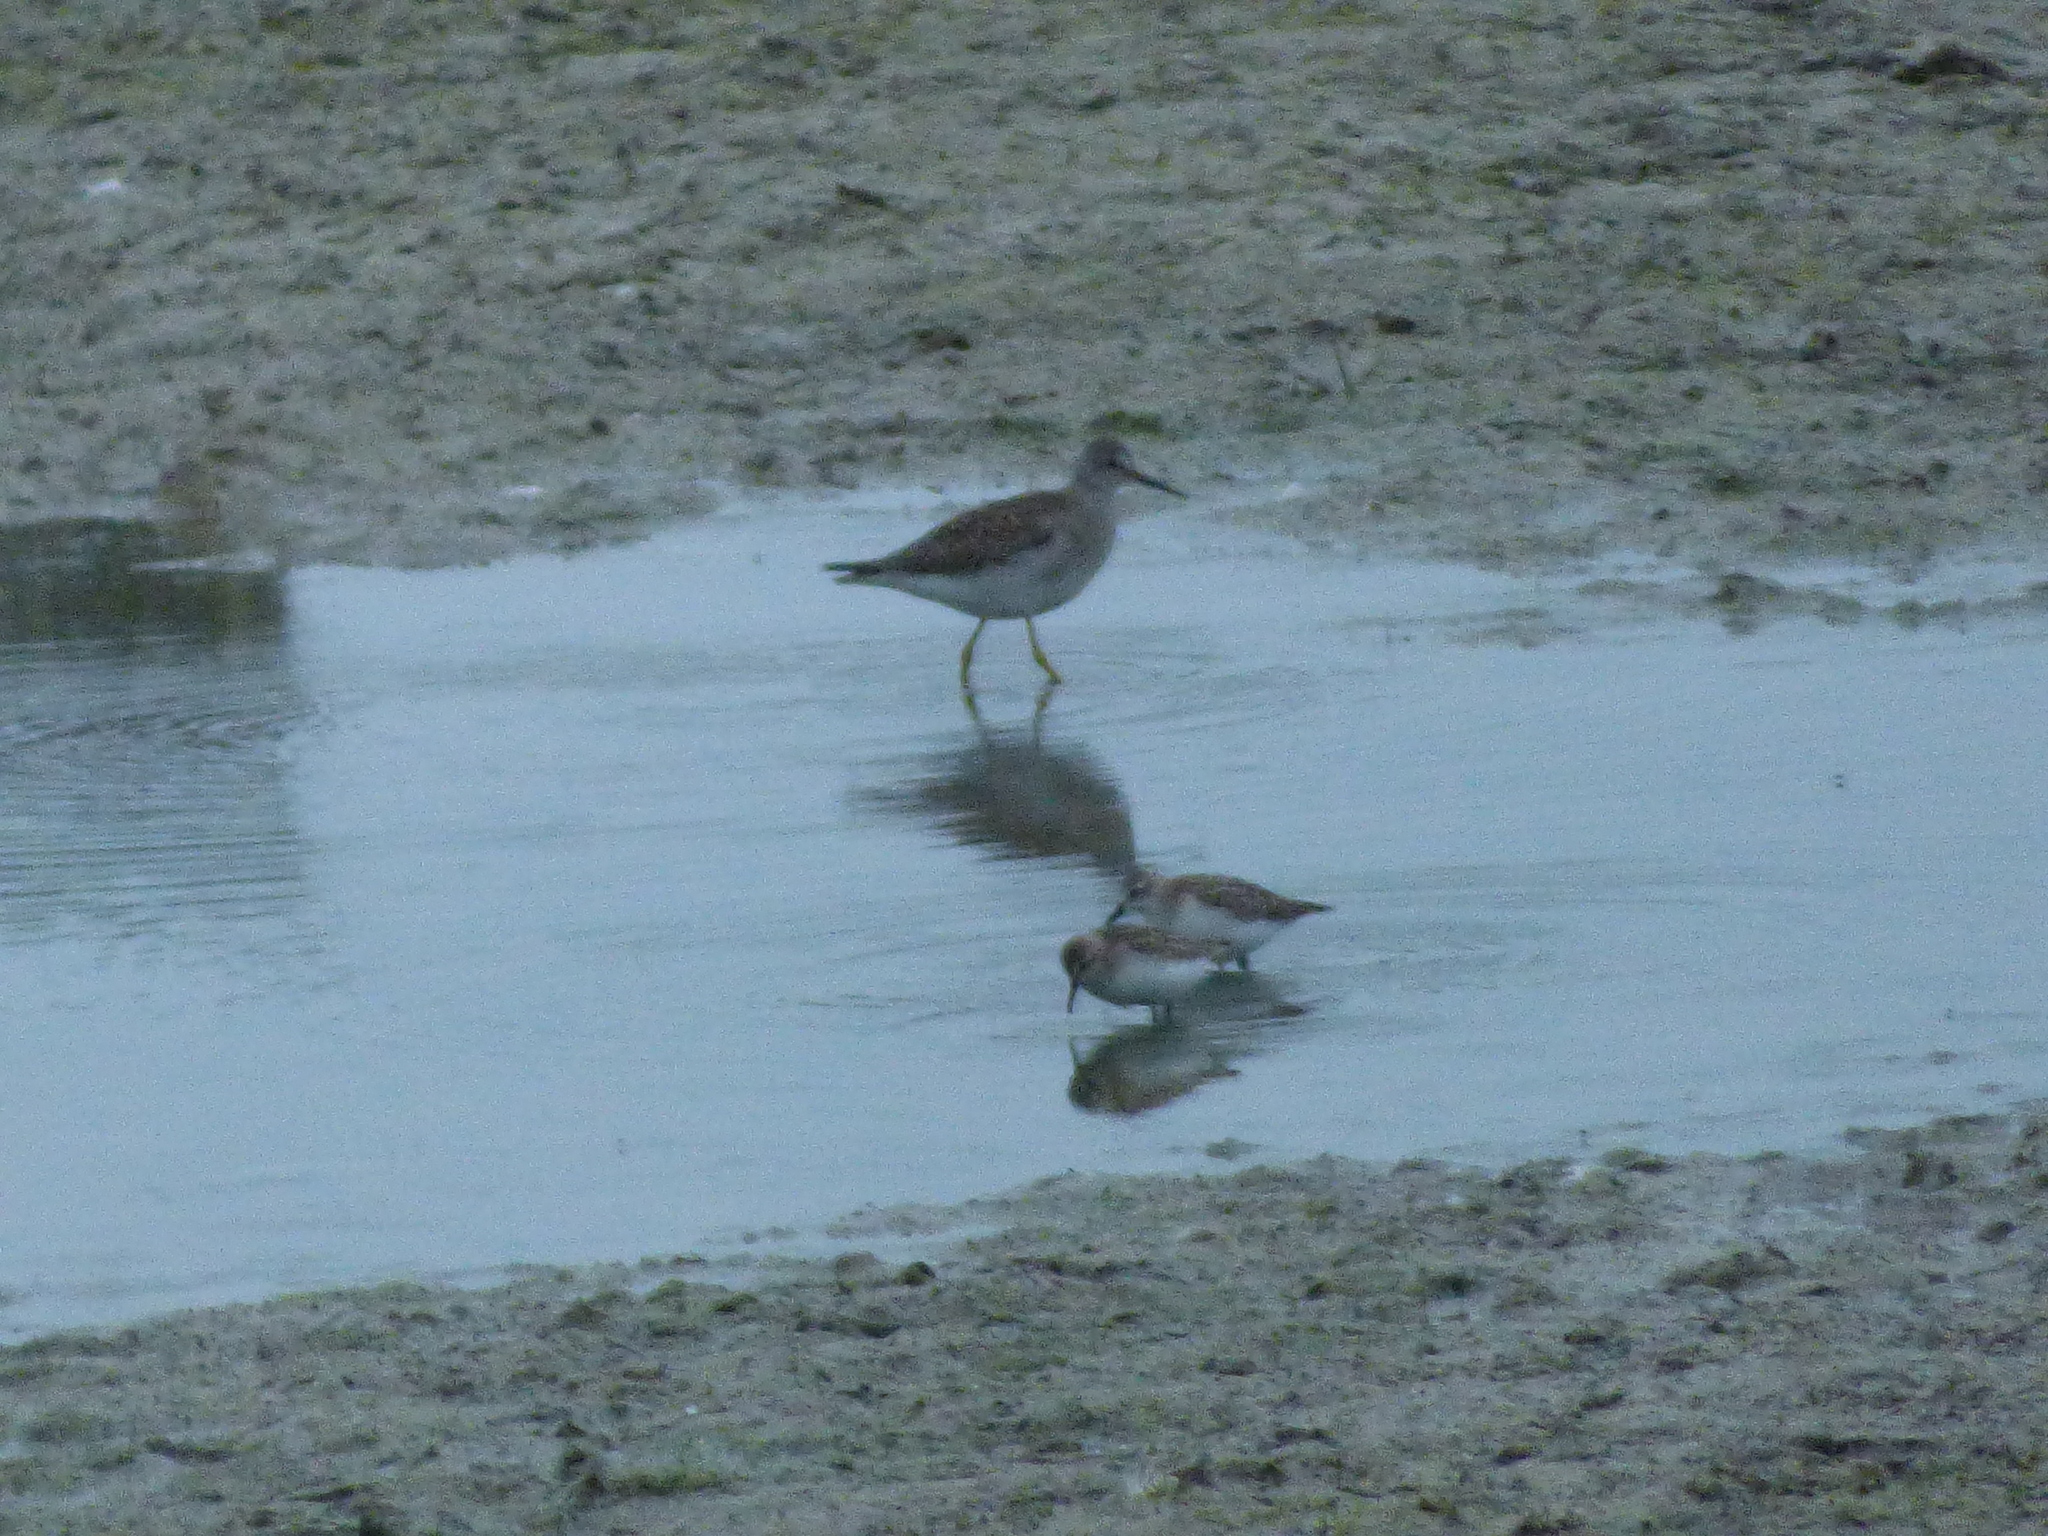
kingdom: Animalia
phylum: Chordata
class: Aves
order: Charadriiformes
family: Scolopacidae
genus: Tringa
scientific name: Tringa flavipes
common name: Lesser yellowlegs
